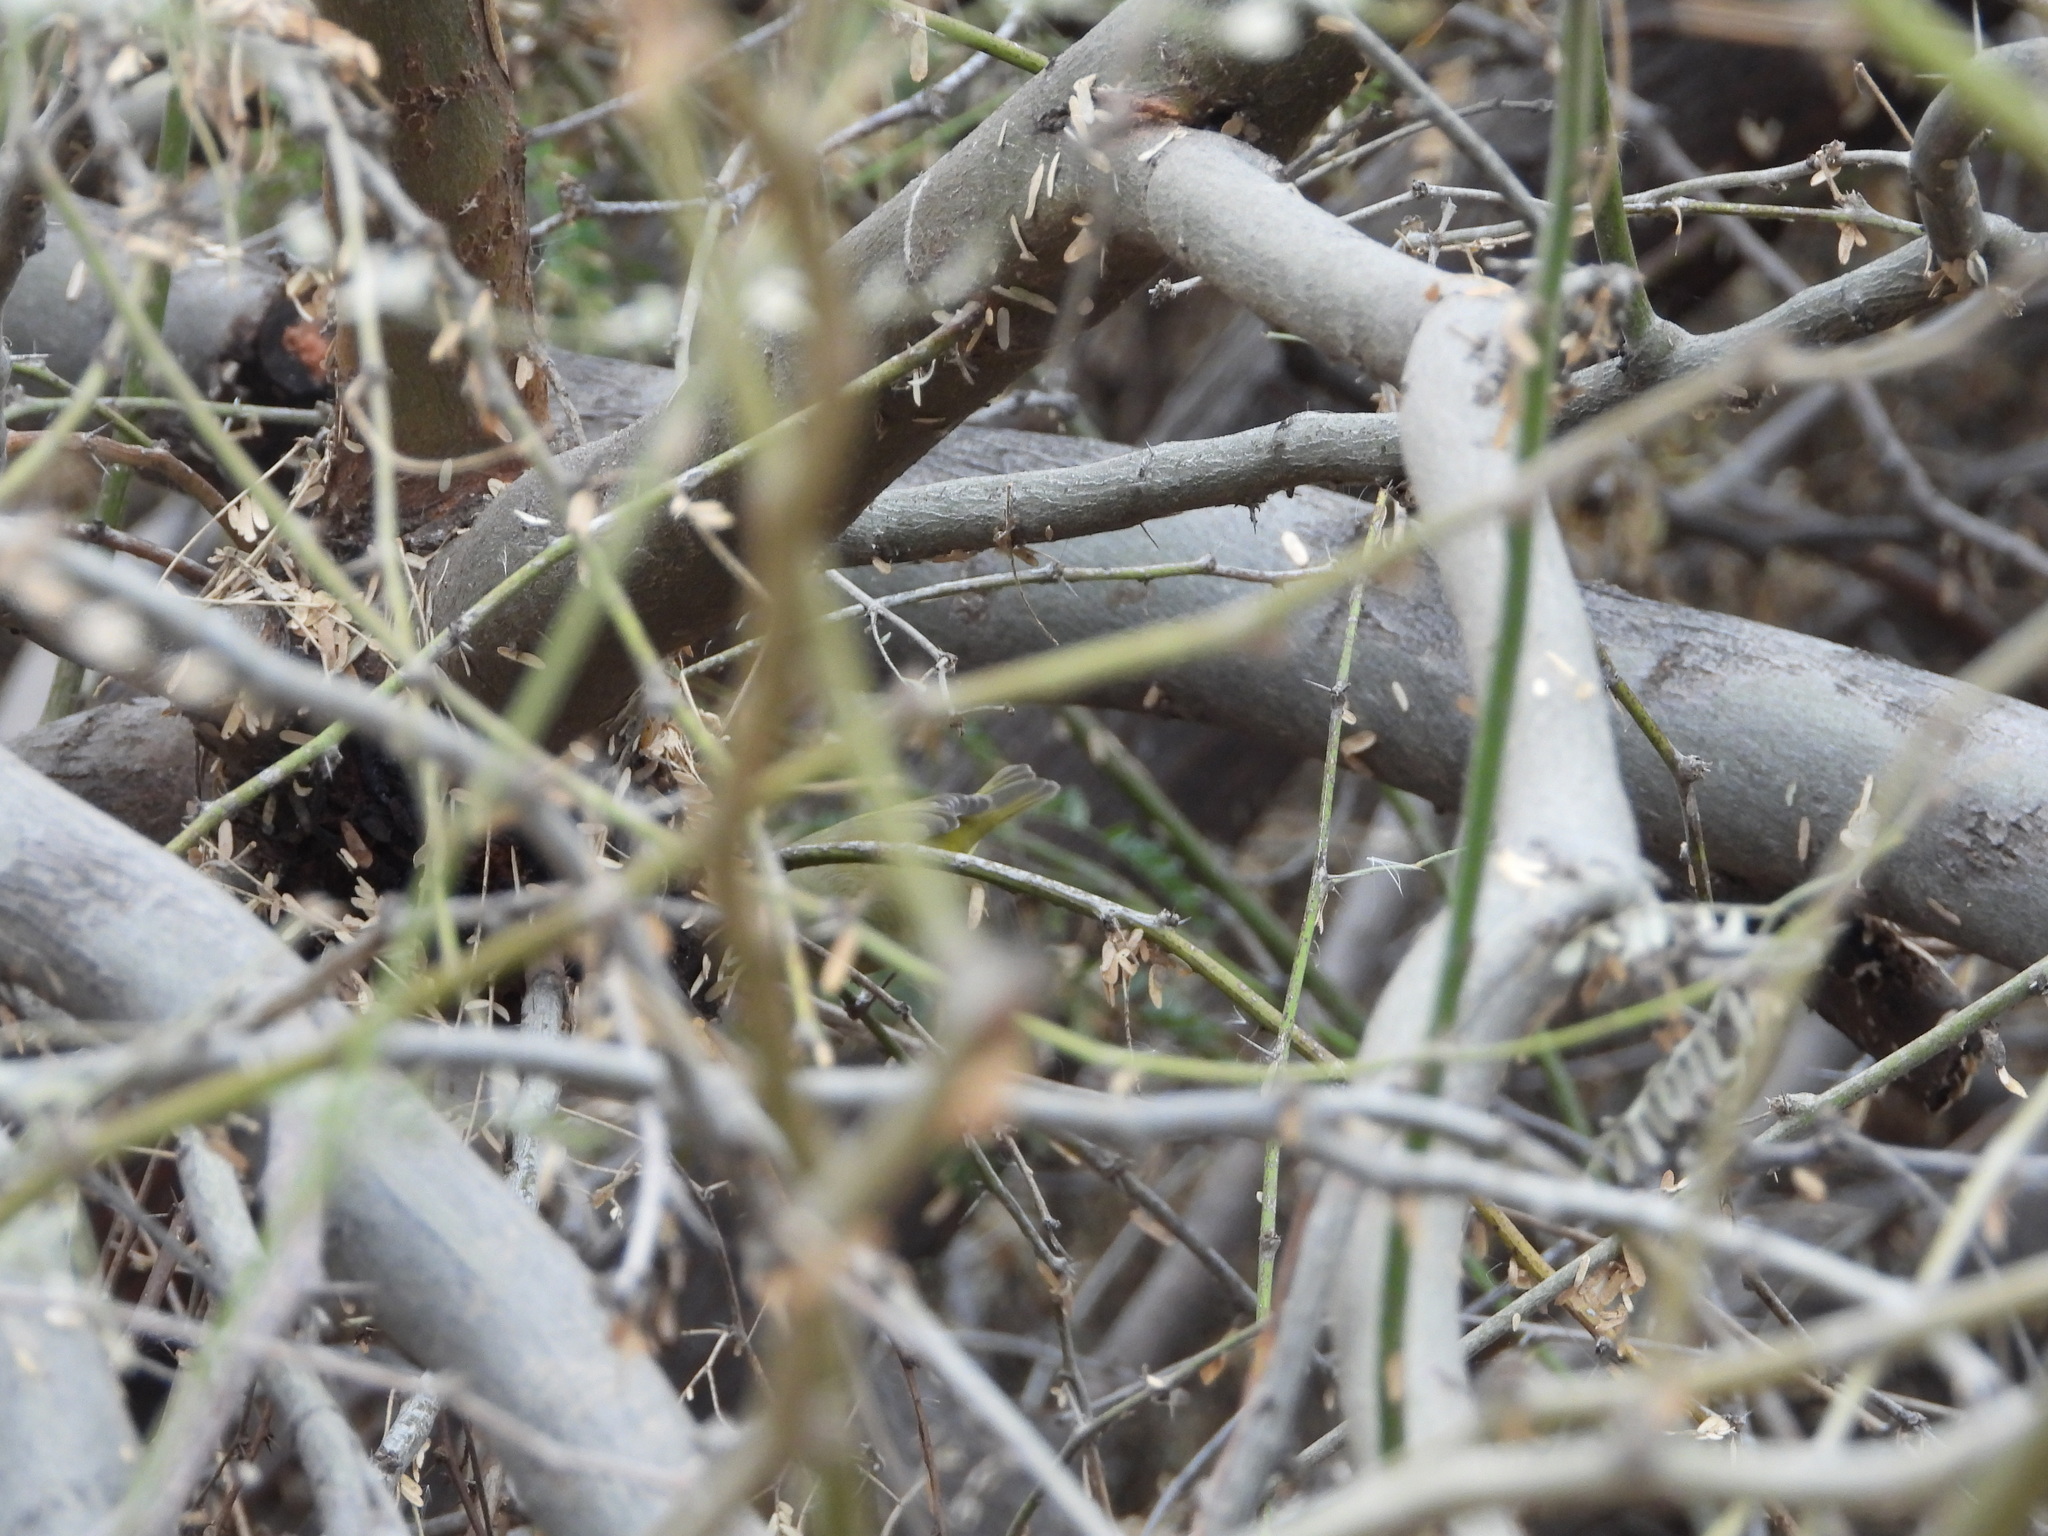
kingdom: Animalia
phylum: Chordata
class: Aves
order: Passeriformes
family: Parulidae
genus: Leiothlypis
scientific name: Leiothlypis celata
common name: Orange-crowned warbler
